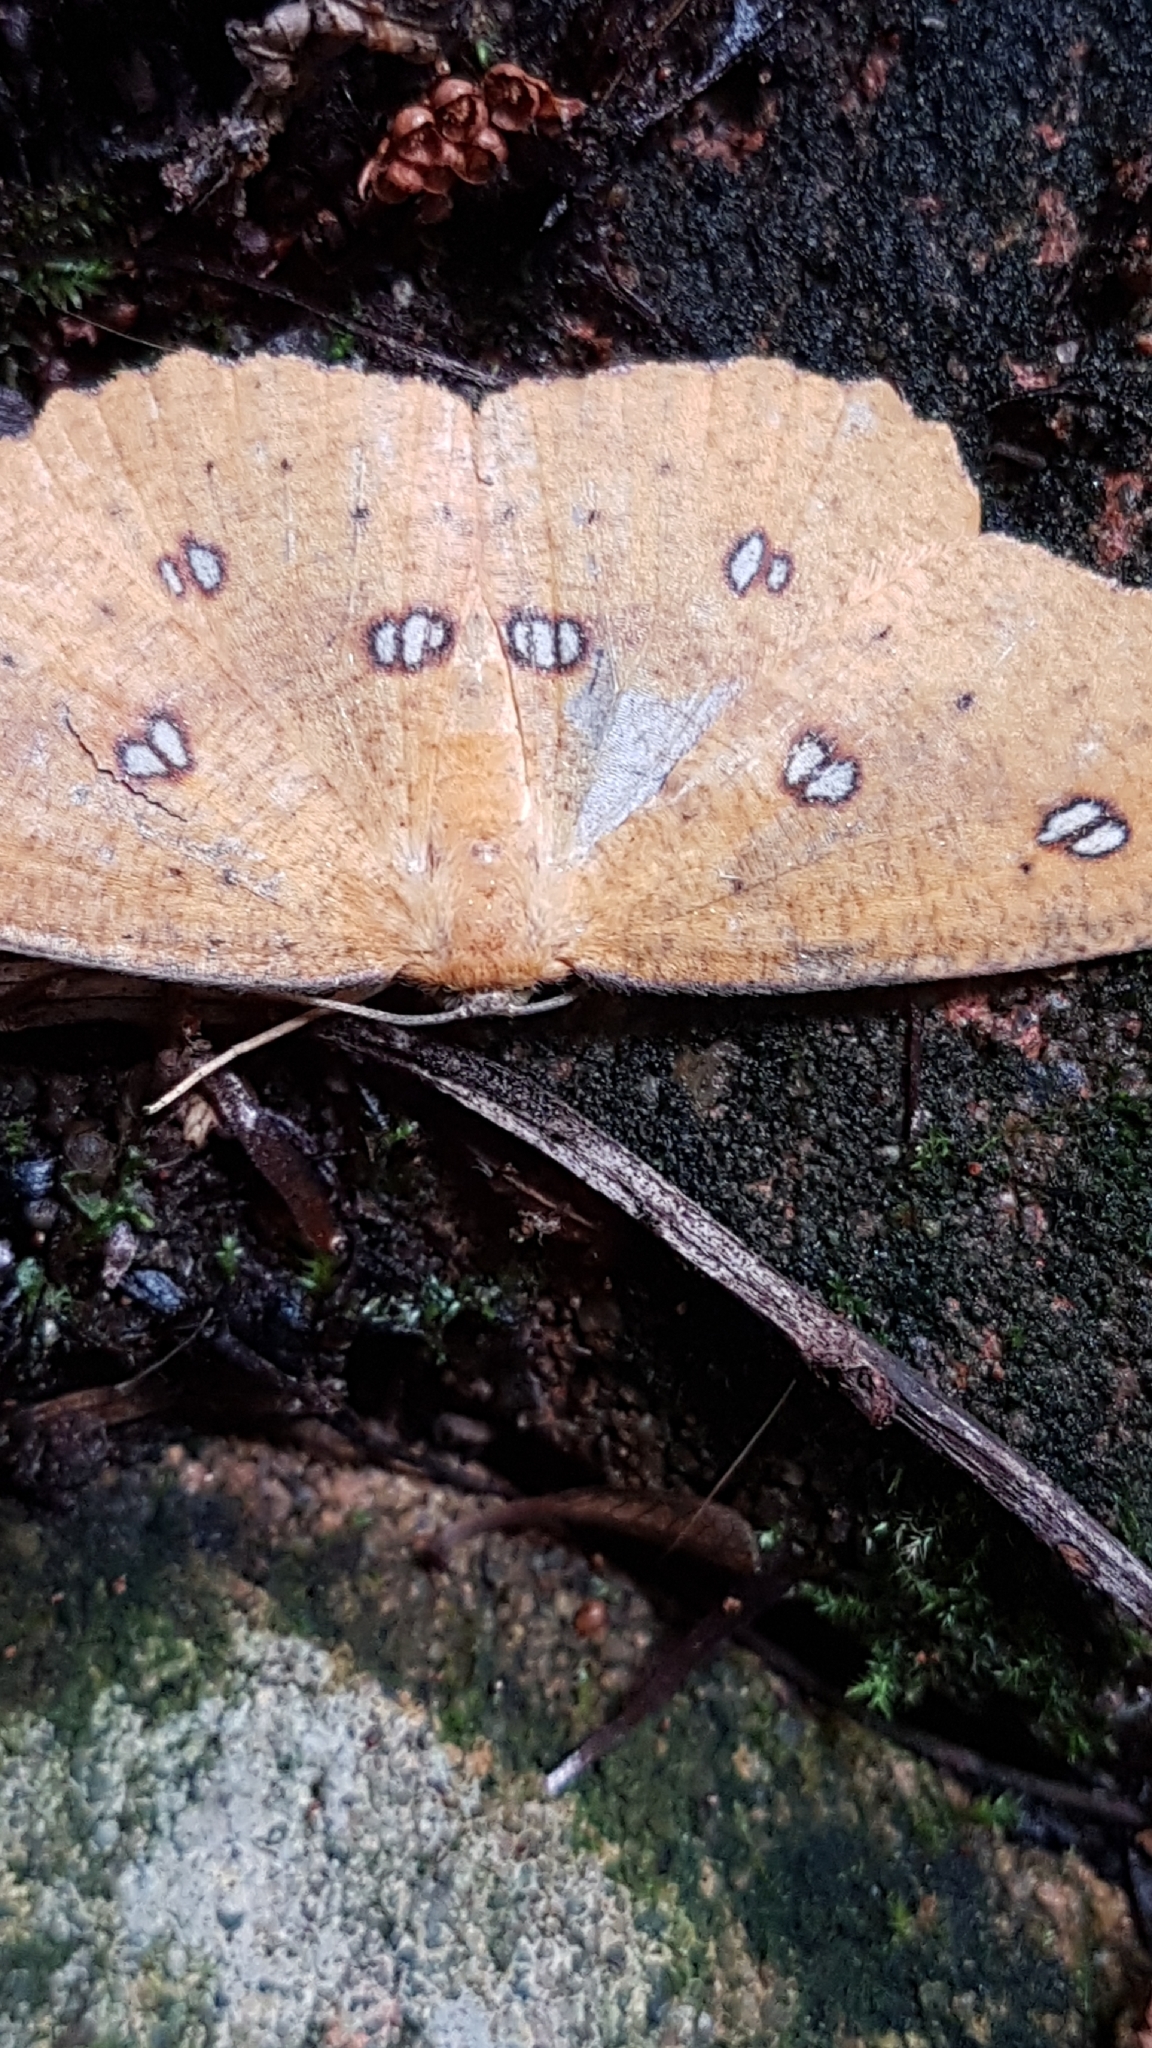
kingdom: Animalia
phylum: Arthropoda
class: Insecta
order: Lepidoptera
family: Geometridae
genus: Xyridacma
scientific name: Xyridacma alectoraria
